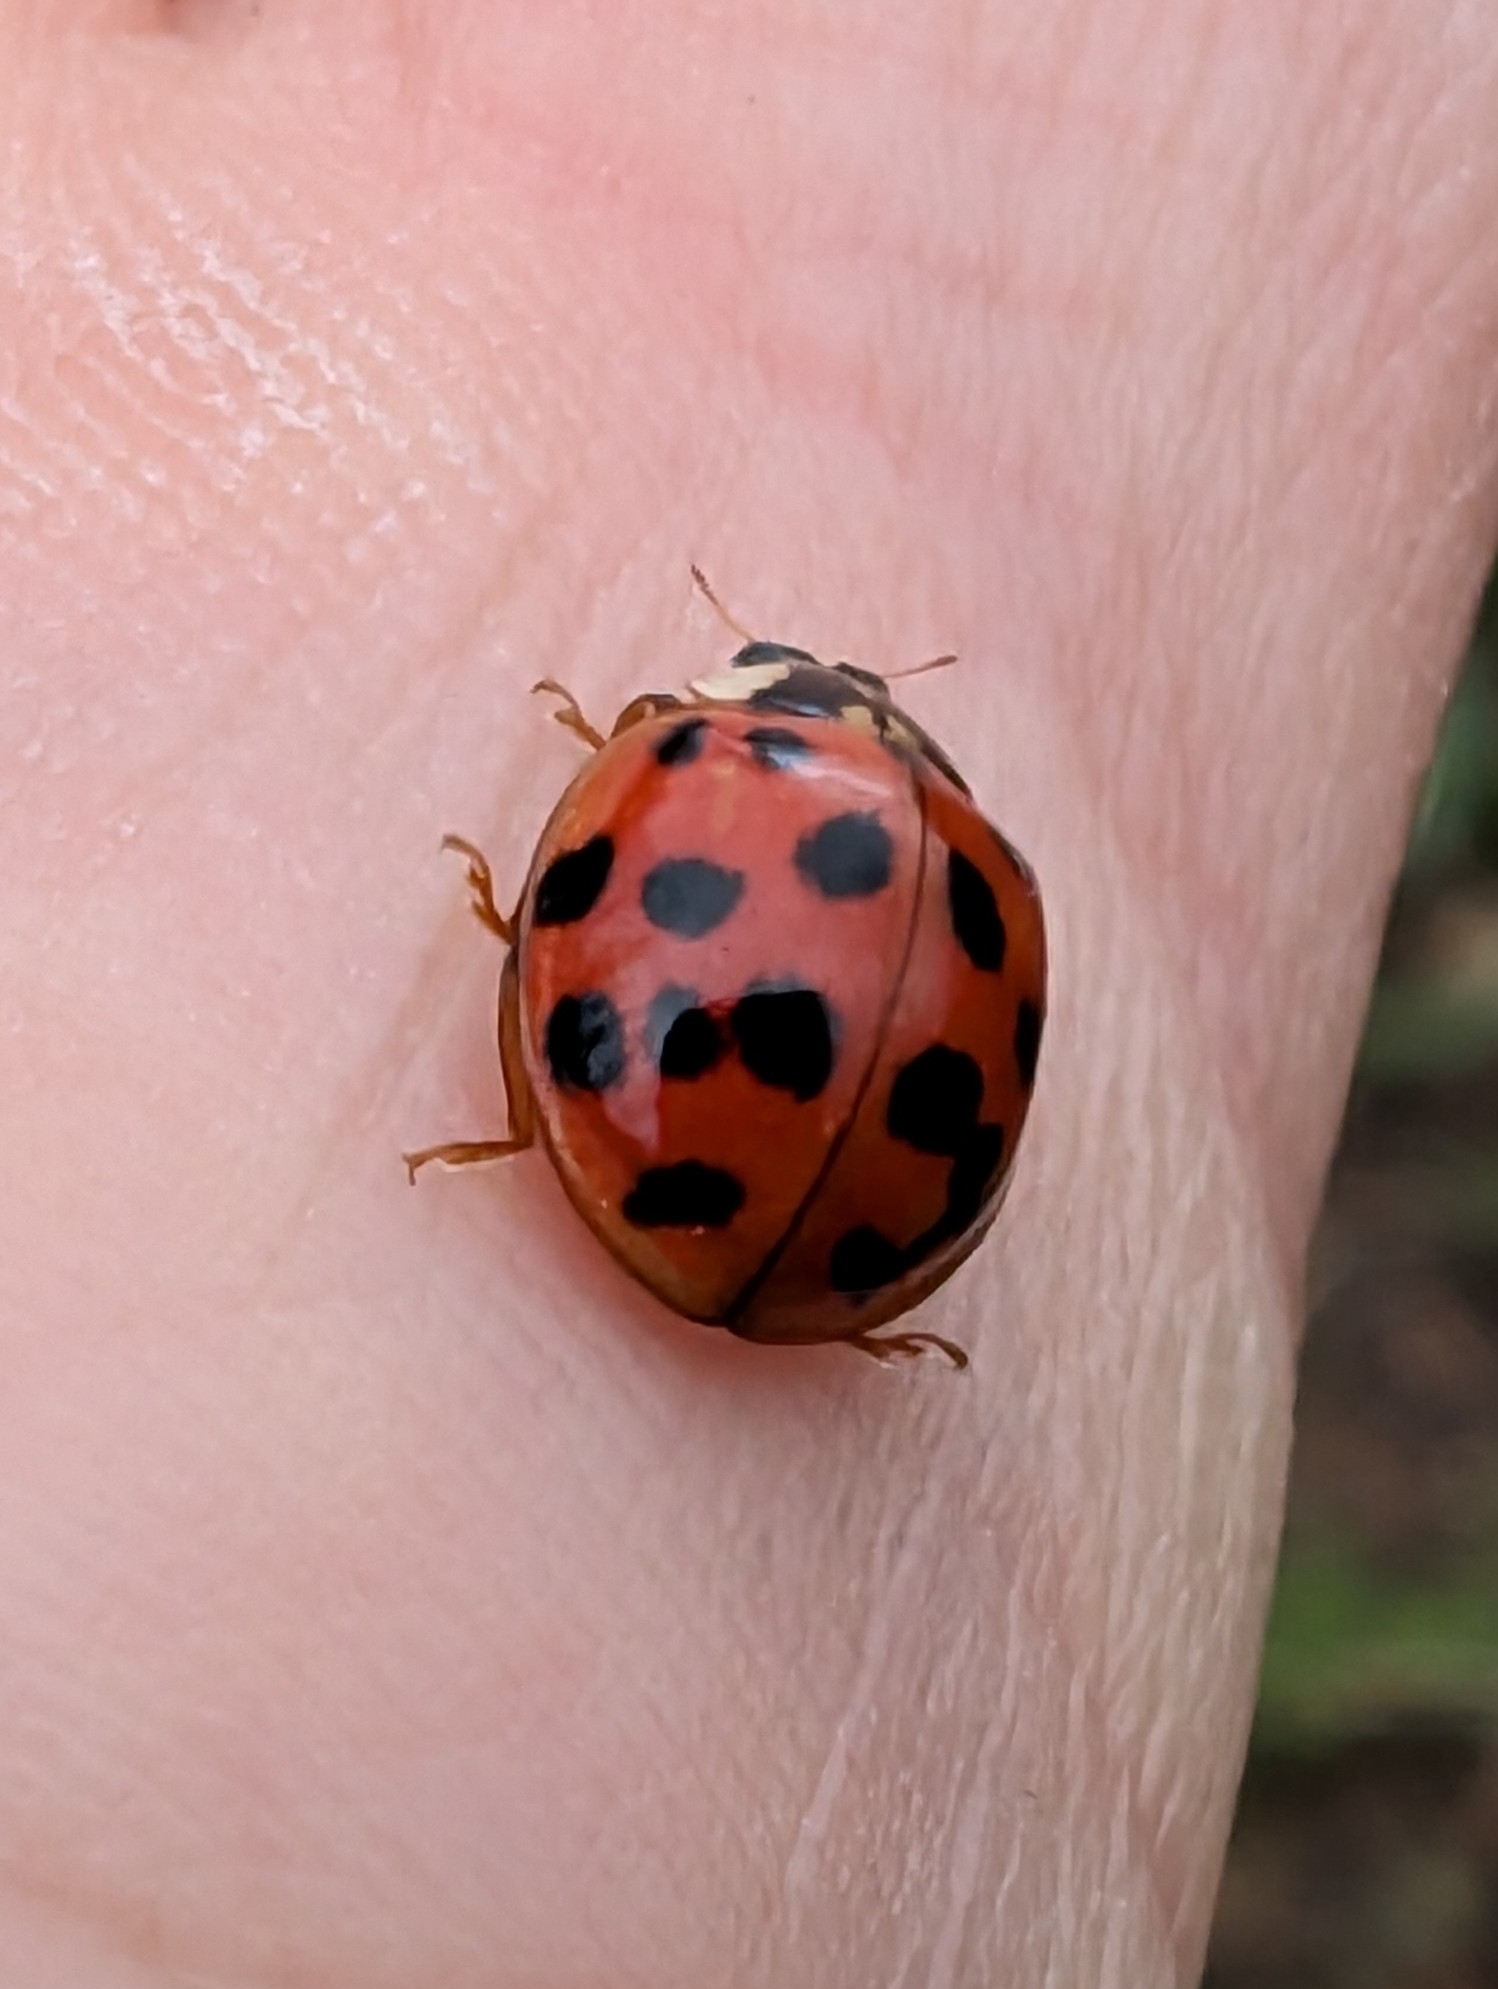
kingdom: Animalia
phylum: Arthropoda
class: Insecta
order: Coleoptera
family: Coccinellidae
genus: Harmonia
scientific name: Harmonia axyridis
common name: Harlequin ladybird
